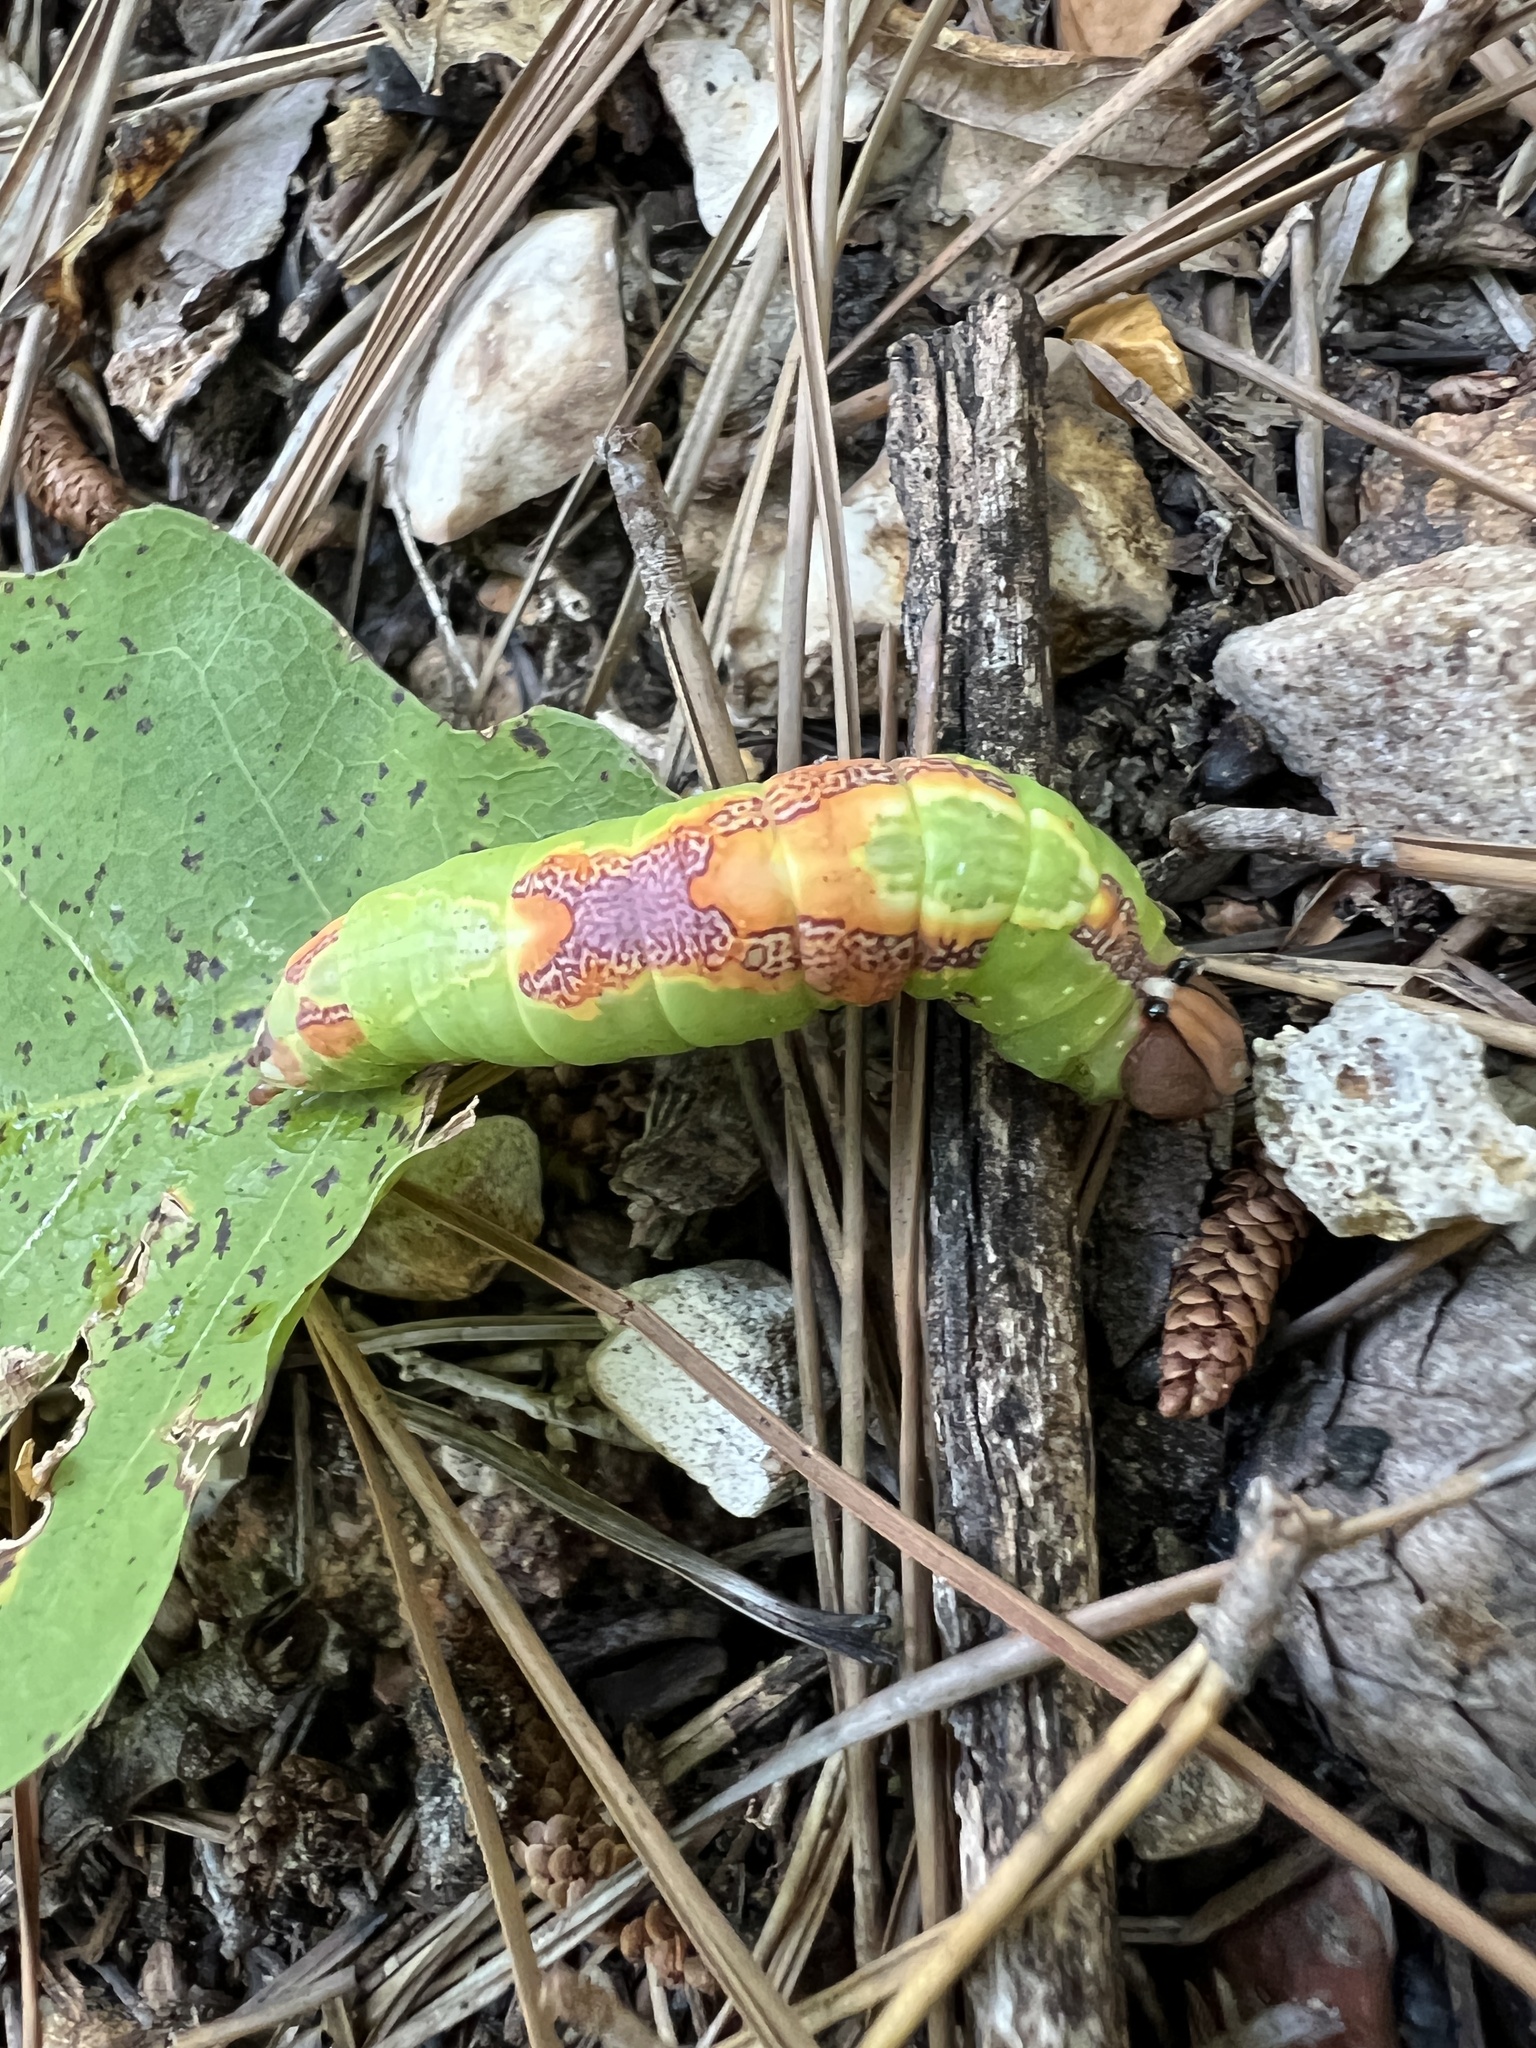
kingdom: Animalia
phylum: Arthropoda
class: Insecta
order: Lepidoptera
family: Notodontidae
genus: Heterocampa
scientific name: Heterocampa
